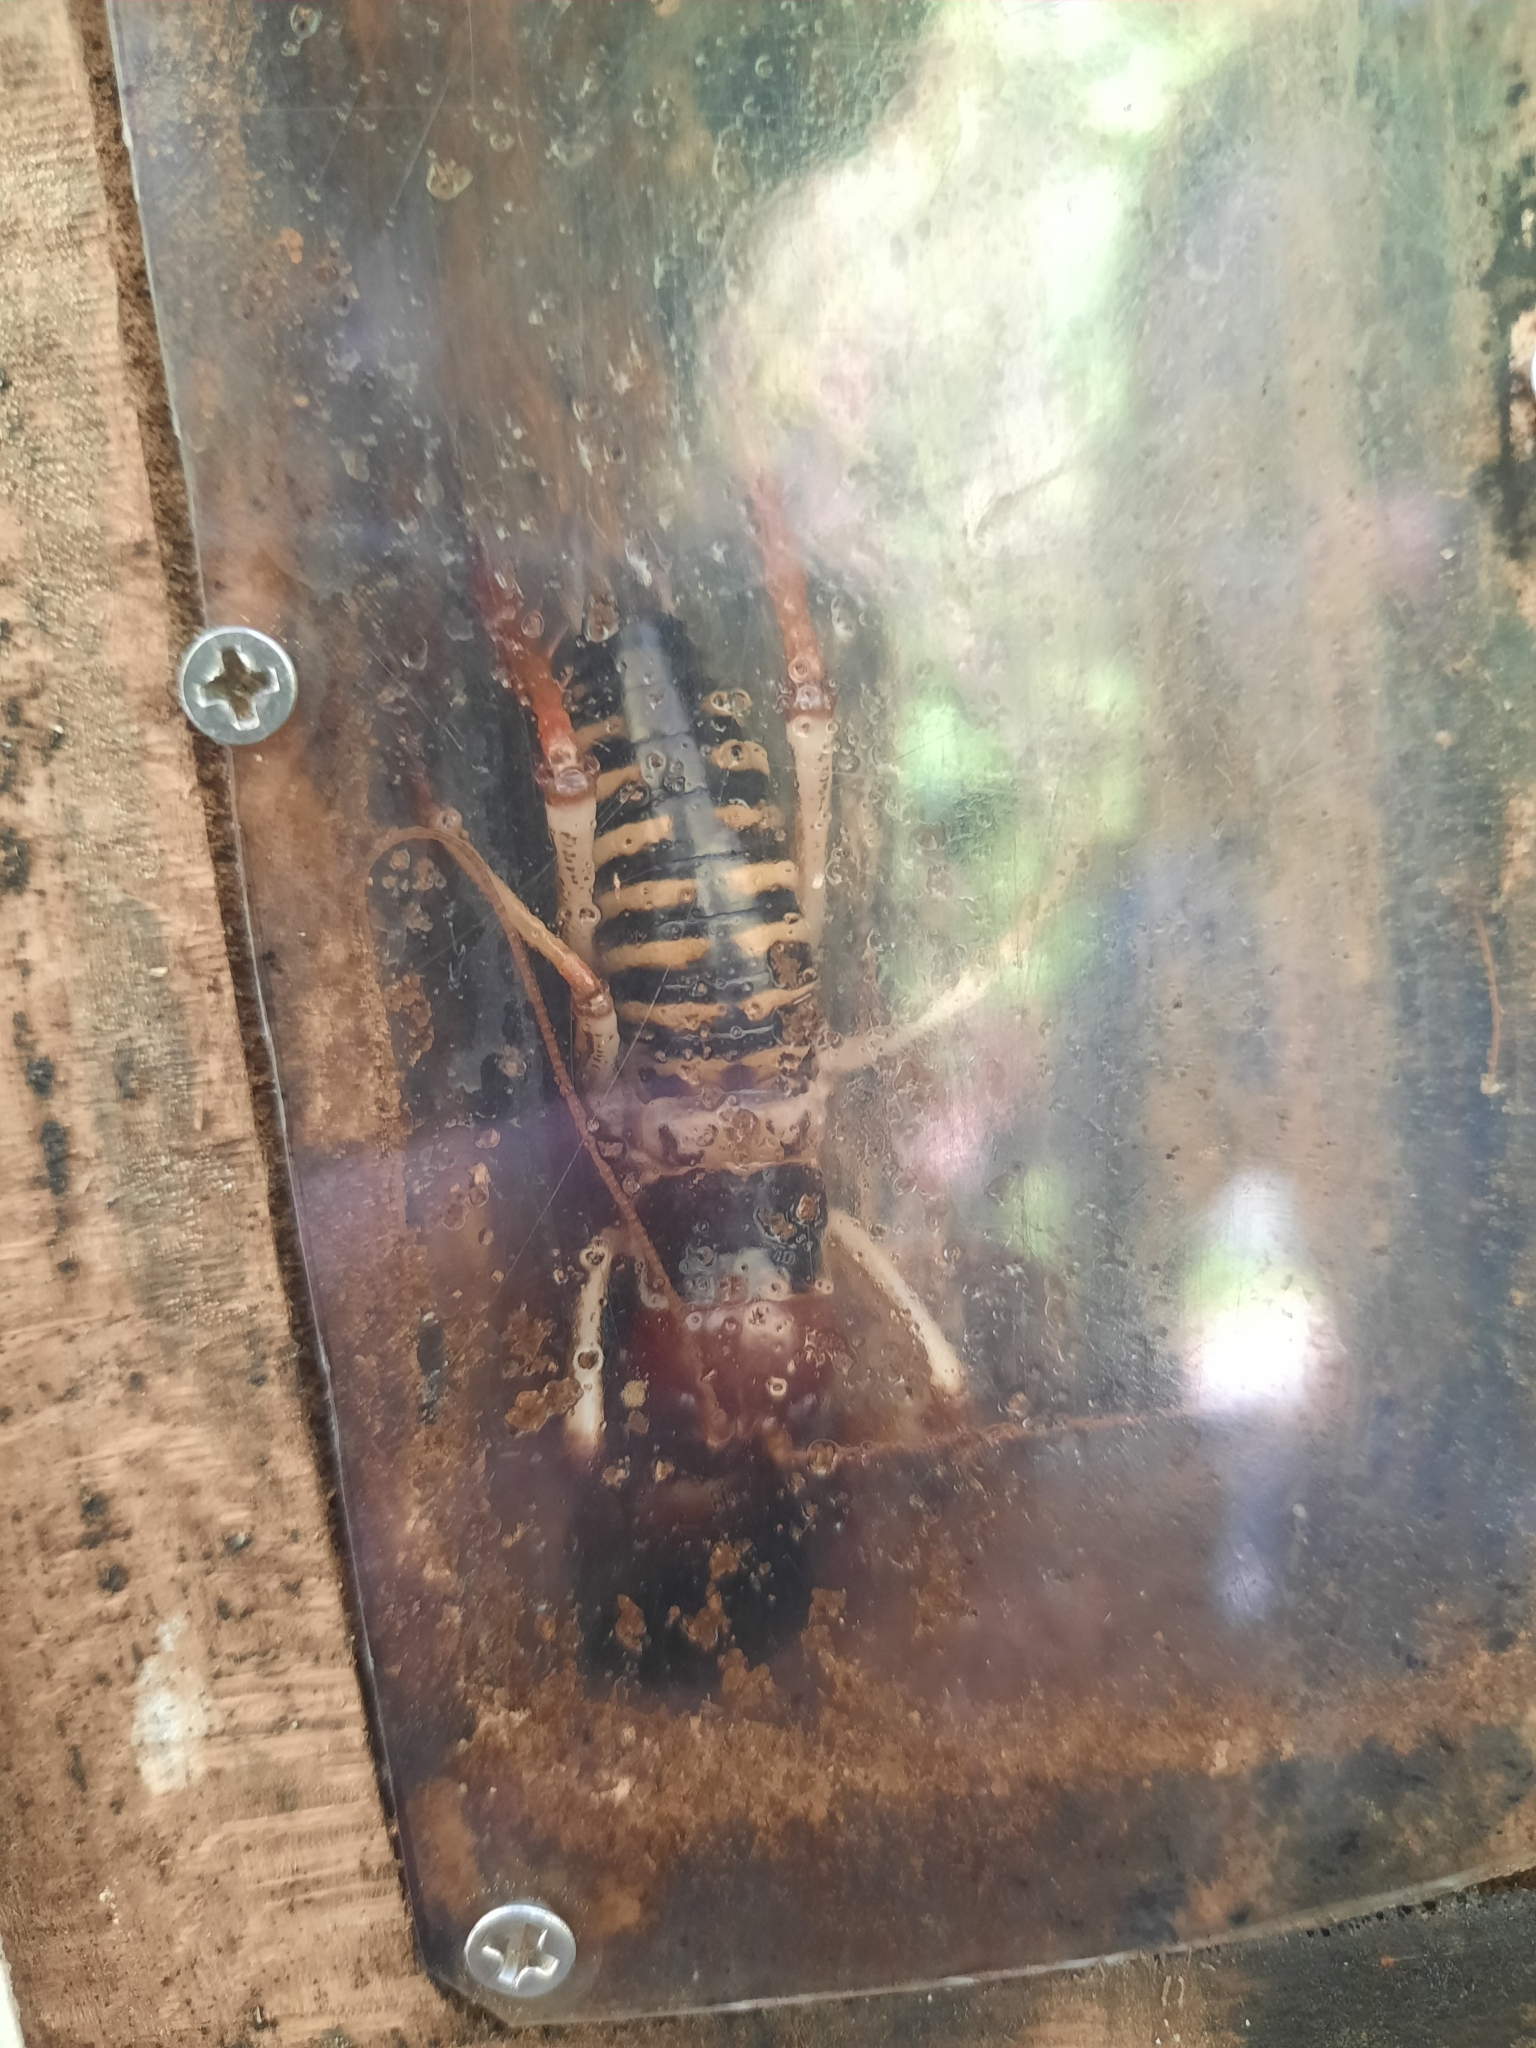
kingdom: Animalia
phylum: Arthropoda
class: Insecta
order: Orthoptera
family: Anostostomatidae
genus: Hemideina
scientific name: Hemideina crassidens
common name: Wellington tree weta
